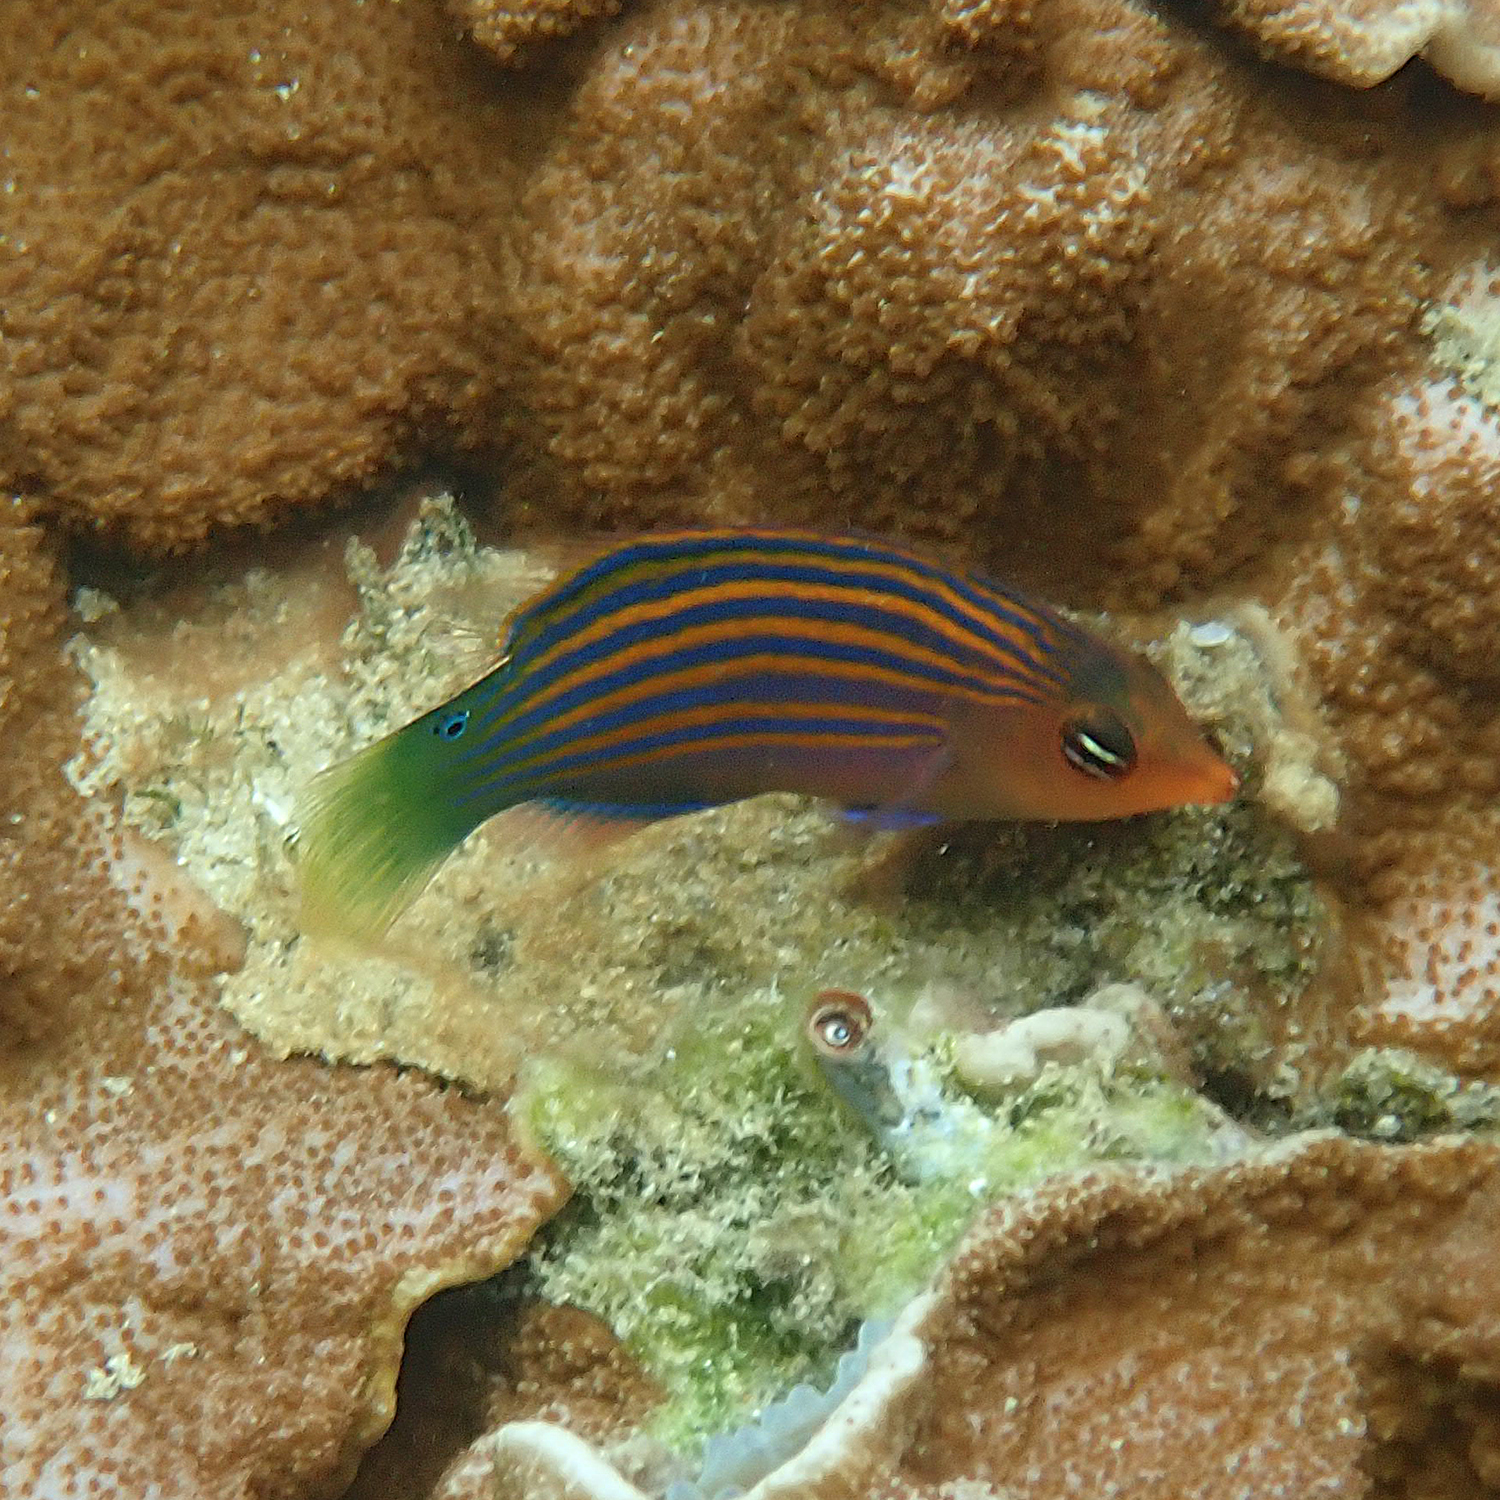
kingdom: Animalia
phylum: Chordata
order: Perciformes
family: Labridae
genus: Pseudocheilinus
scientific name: Pseudocheilinus hexataenia
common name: Sixline wrasse
